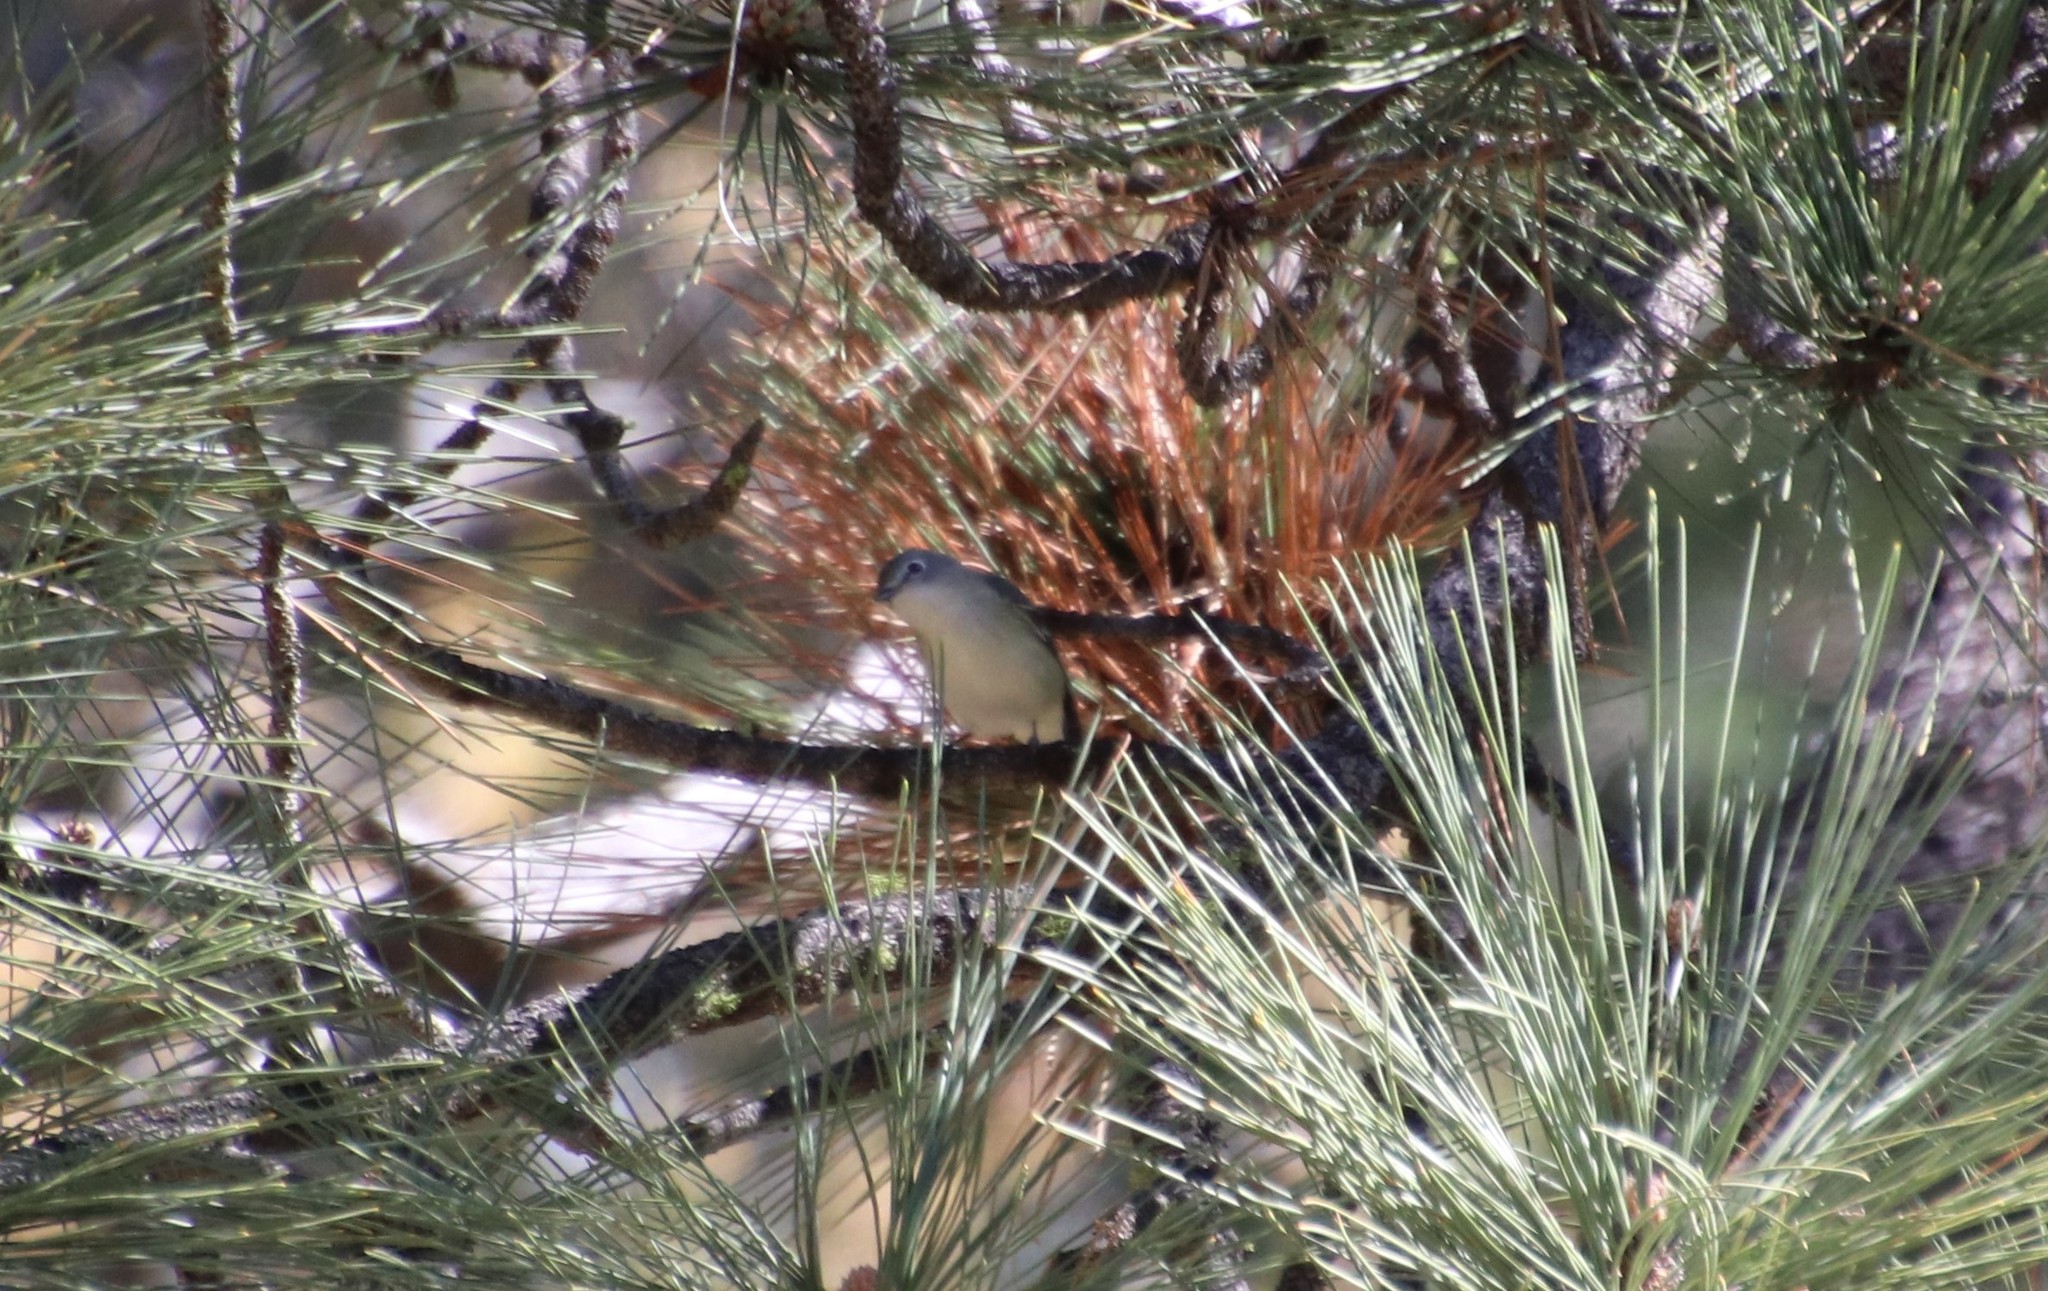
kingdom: Animalia
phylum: Chordata
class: Aves
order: Passeriformes
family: Vireonidae
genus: Vireo
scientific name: Vireo cassinii
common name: Cassin's vireo
